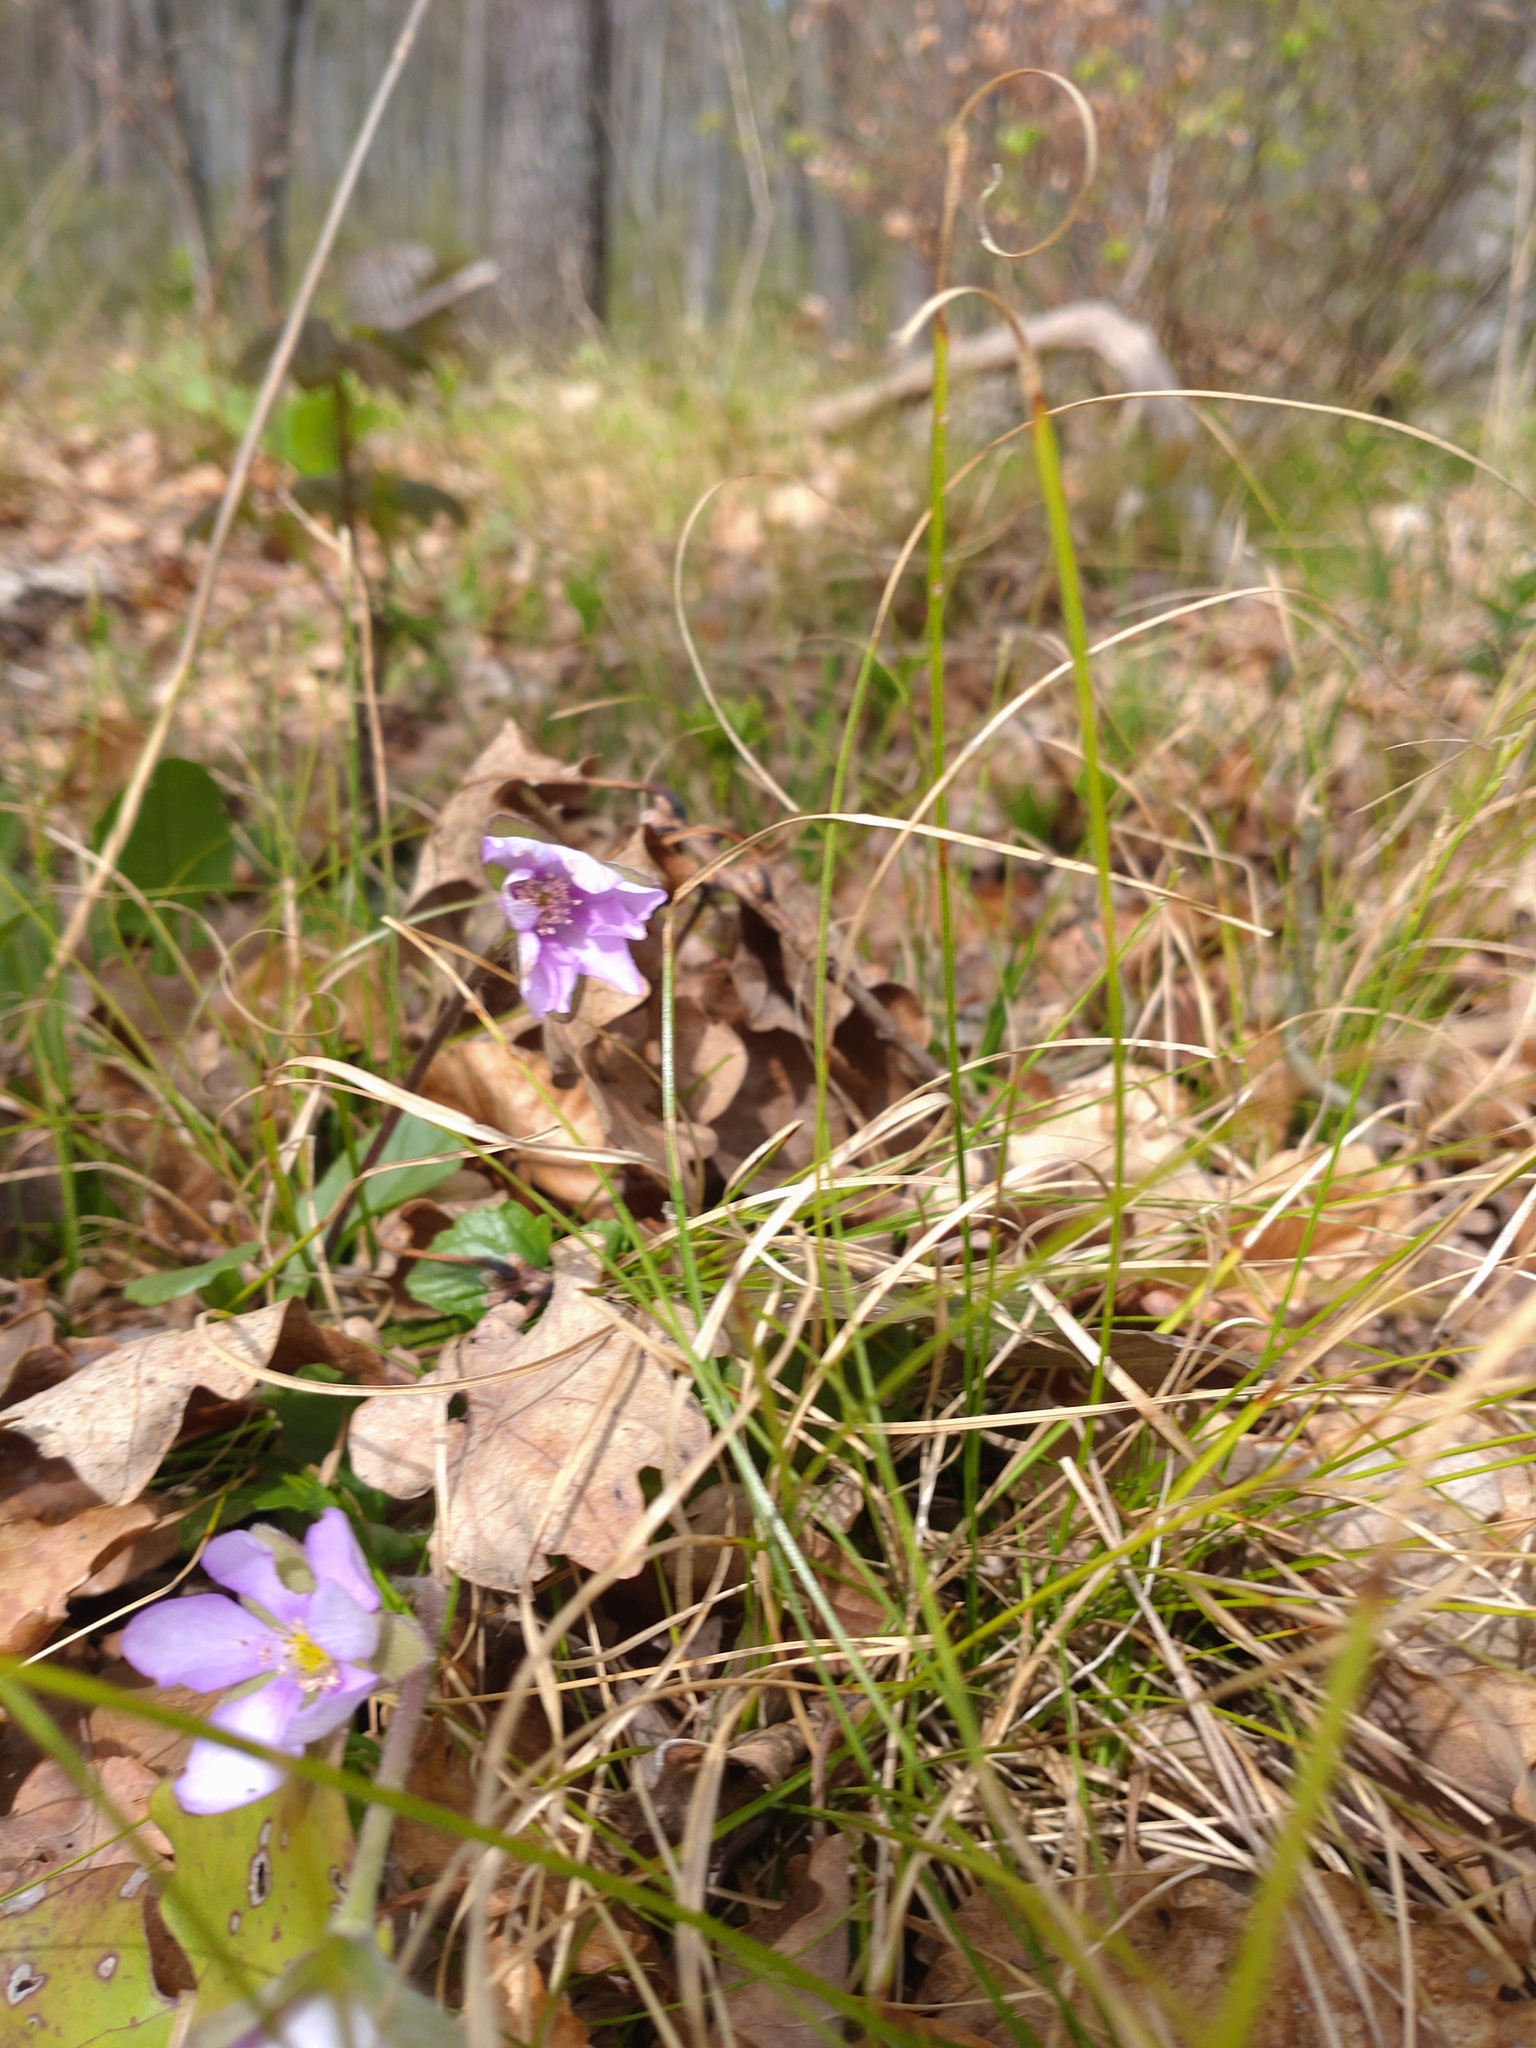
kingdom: Plantae
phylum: Tracheophyta
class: Magnoliopsida
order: Ranunculales
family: Ranunculaceae
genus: Hepatica
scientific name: Hepatica nobilis
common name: Liverleaf
